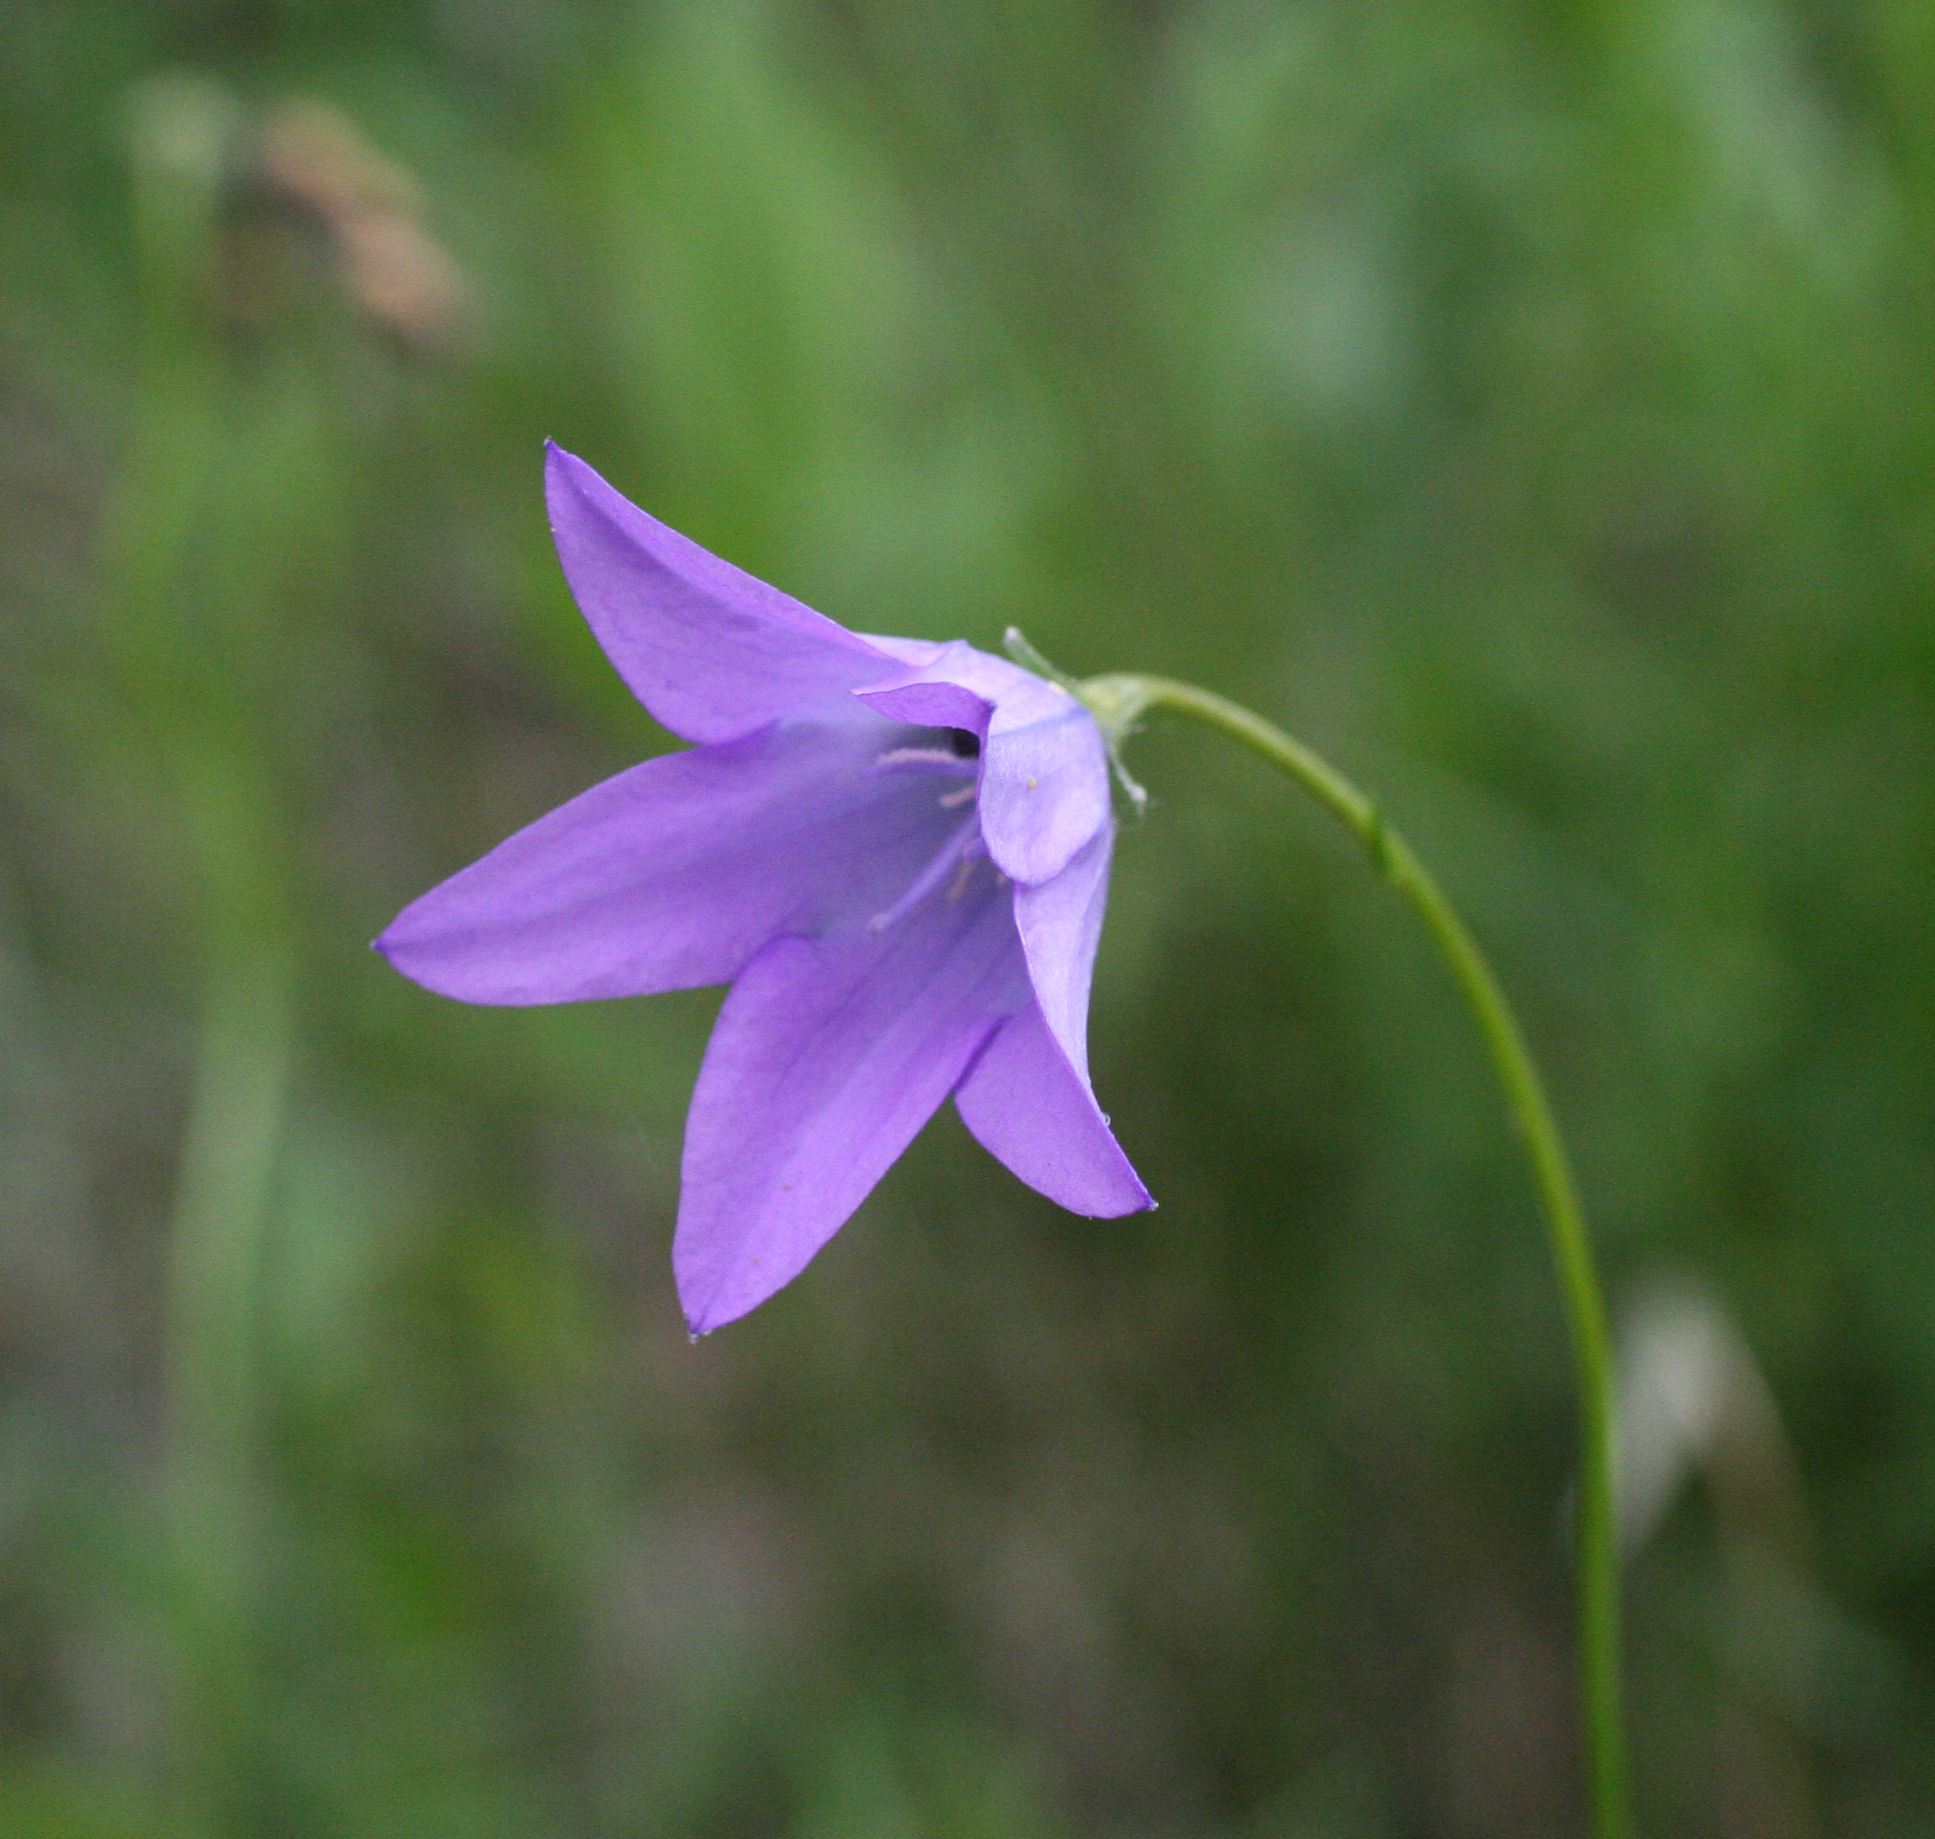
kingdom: Plantae
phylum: Tracheophyta
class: Magnoliopsida
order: Asterales
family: Campanulaceae
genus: Campanula
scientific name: Campanula stevenii
